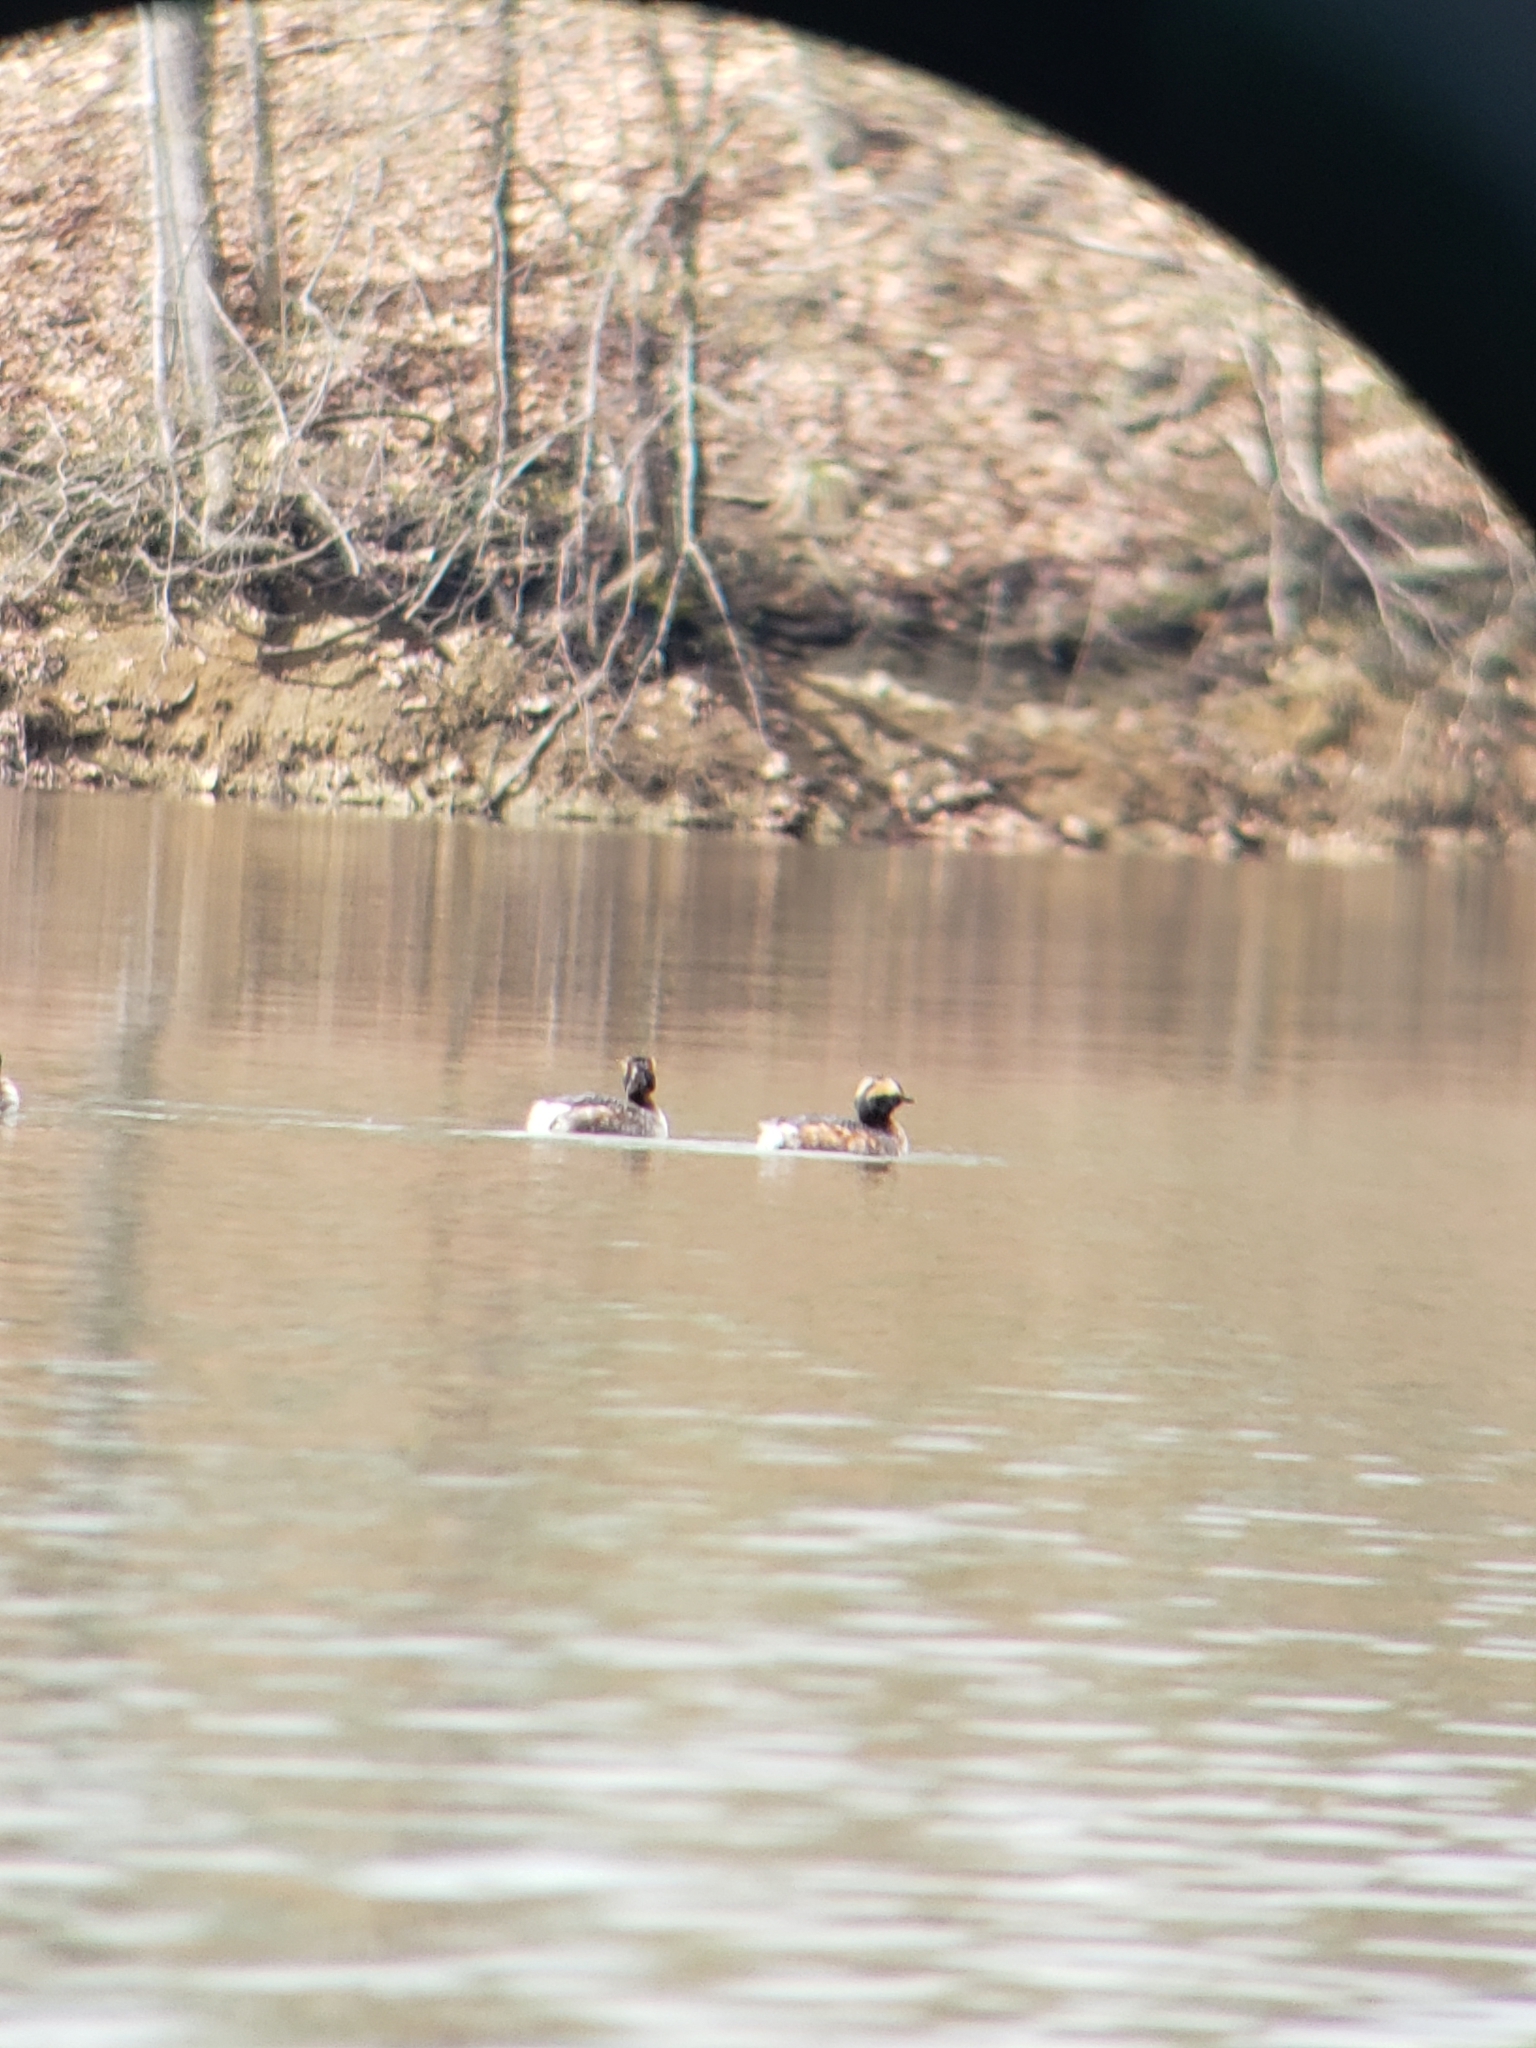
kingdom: Animalia
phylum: Chordata
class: Aves
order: Podicipediformes
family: Podicipedidae
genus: Podiceps
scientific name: Podiceps auritus
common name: Horned grebe
